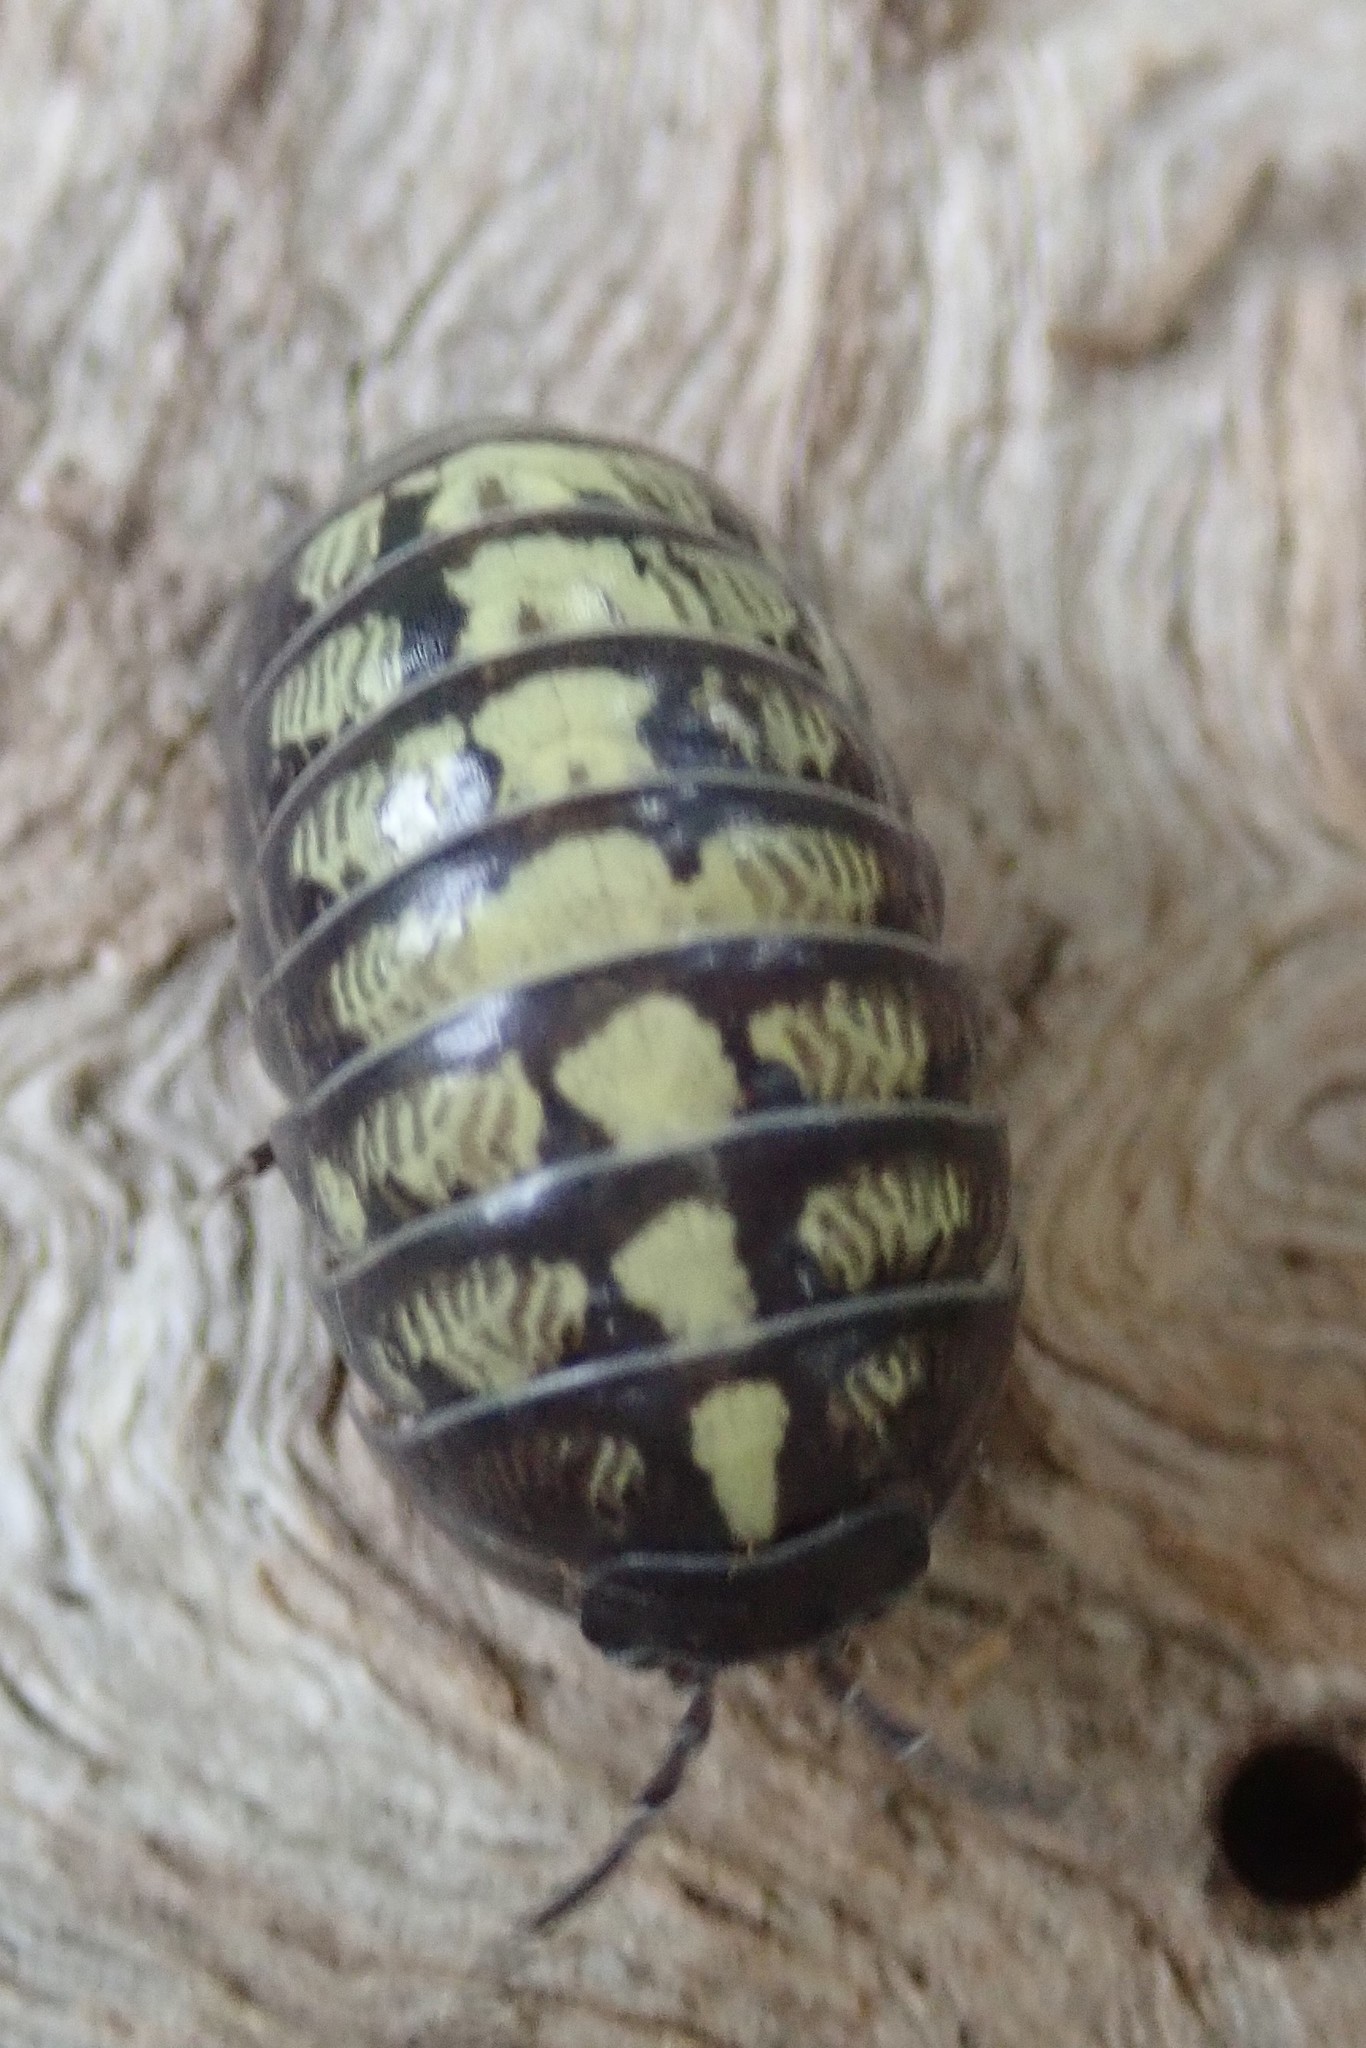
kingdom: Animalia
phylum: Arthropoda
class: Malacostraca
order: Isopoda
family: Armadillidiidae
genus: Armadillidium
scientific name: Armadillidium vulgare
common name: Common pill woodlouse
